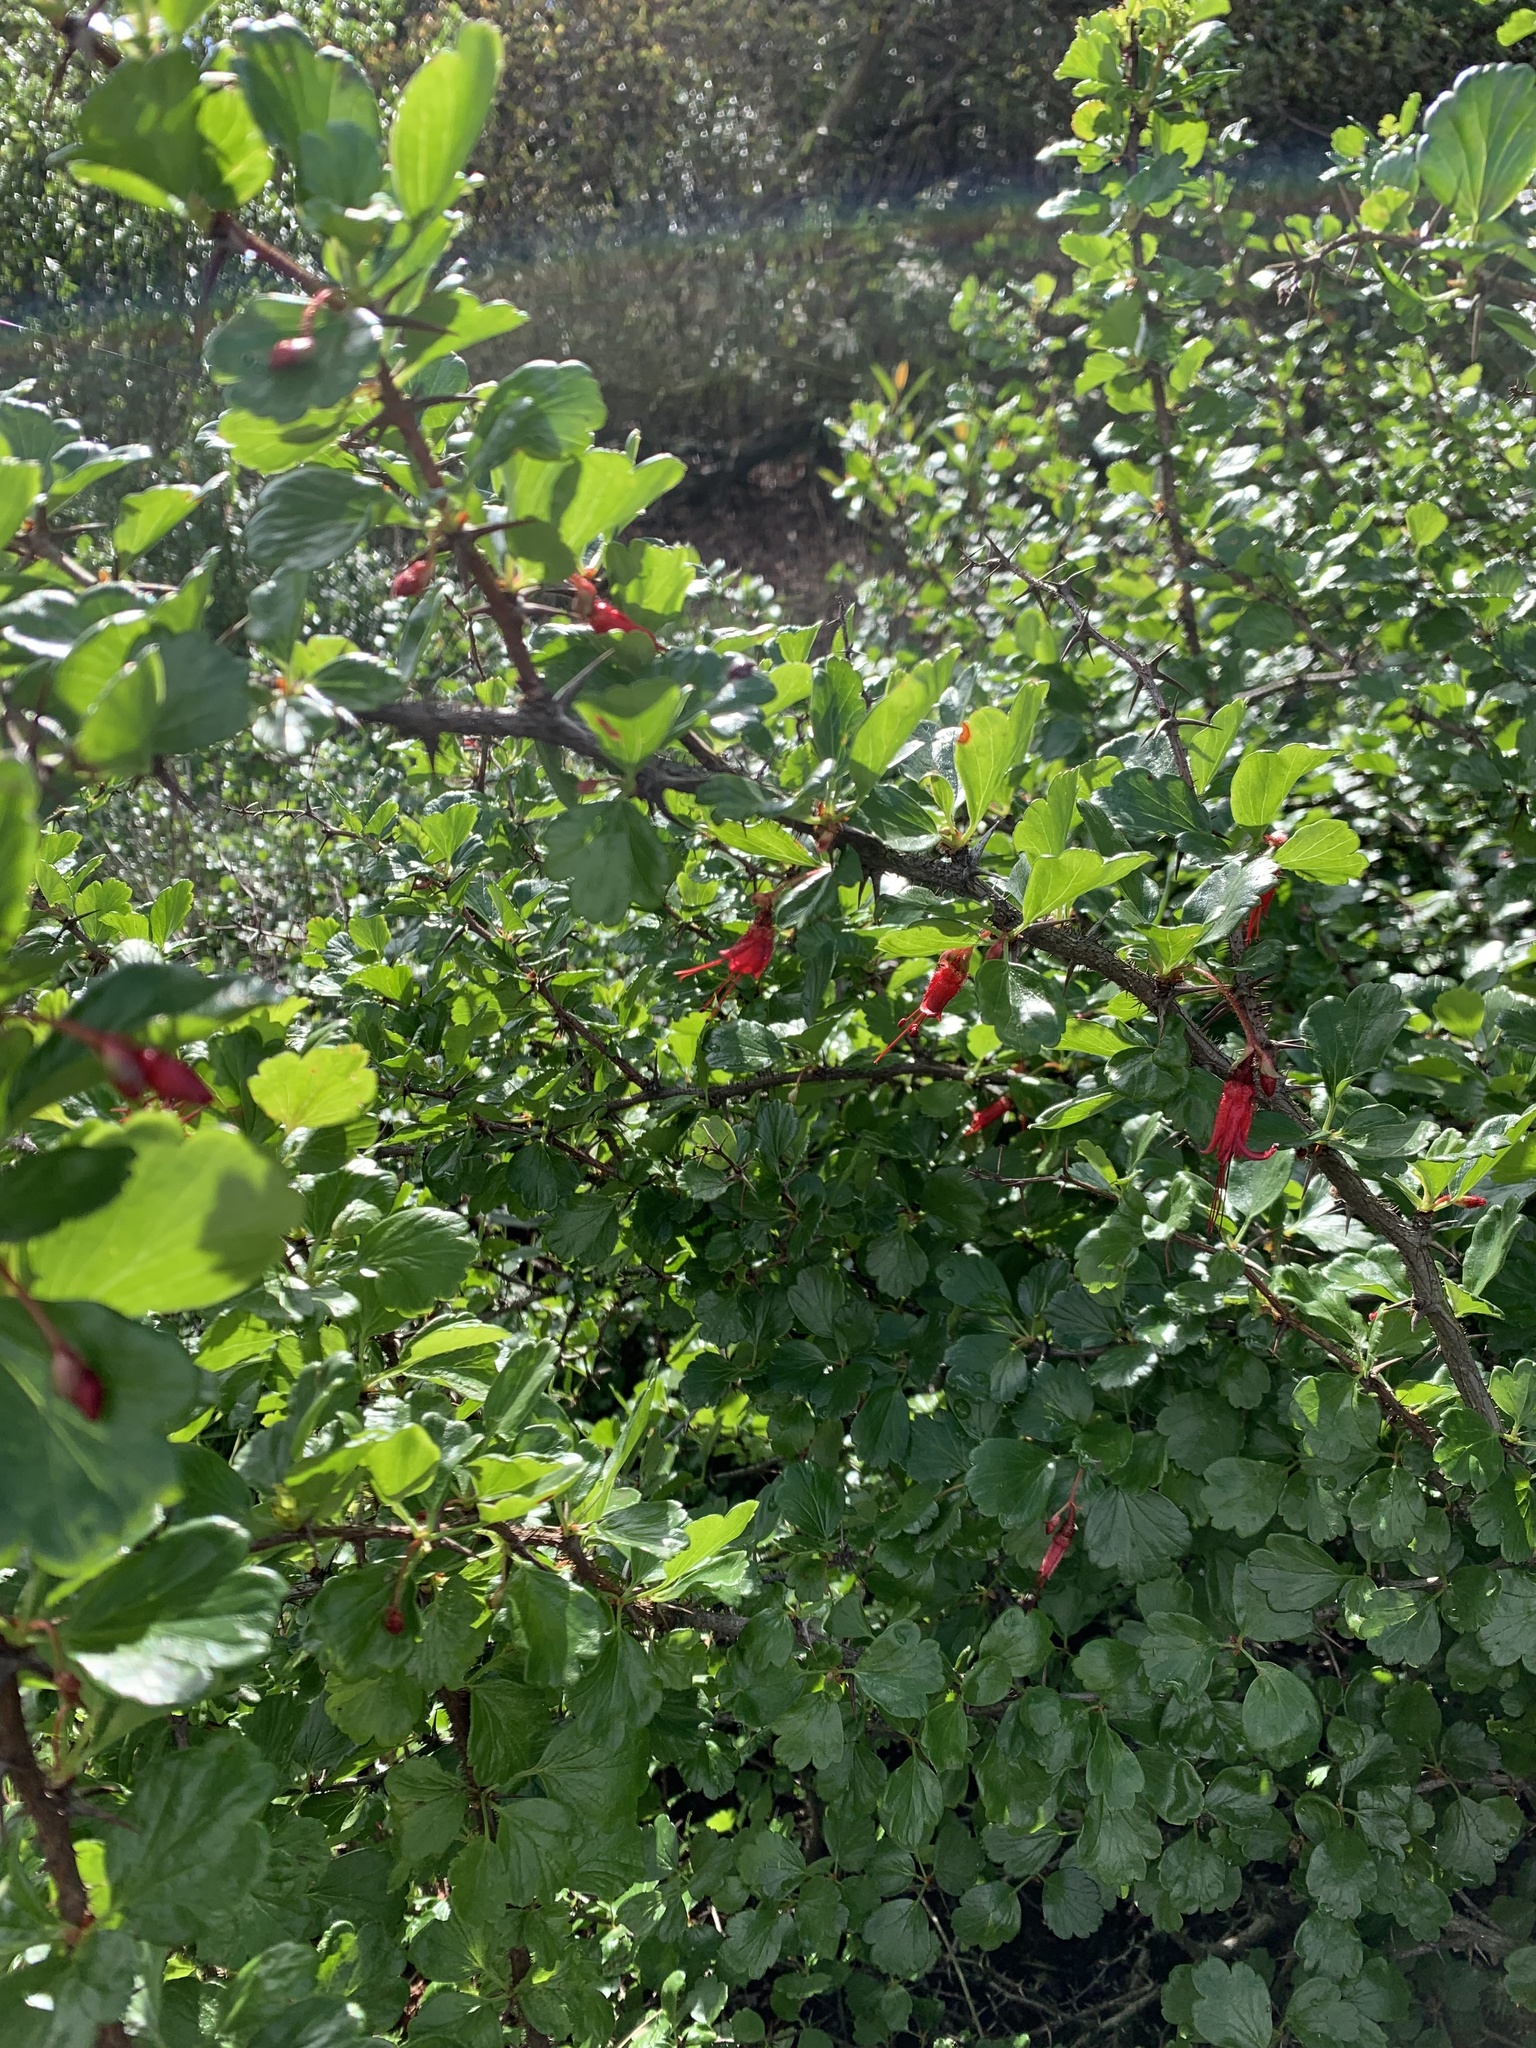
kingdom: Plantae
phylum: Tracheophyta
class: Magnoliopsida
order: Saxifragales
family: Grossulariaceae
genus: Ribes
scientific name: Ribes speciosum
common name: Fuchsia-flower gooseberry
